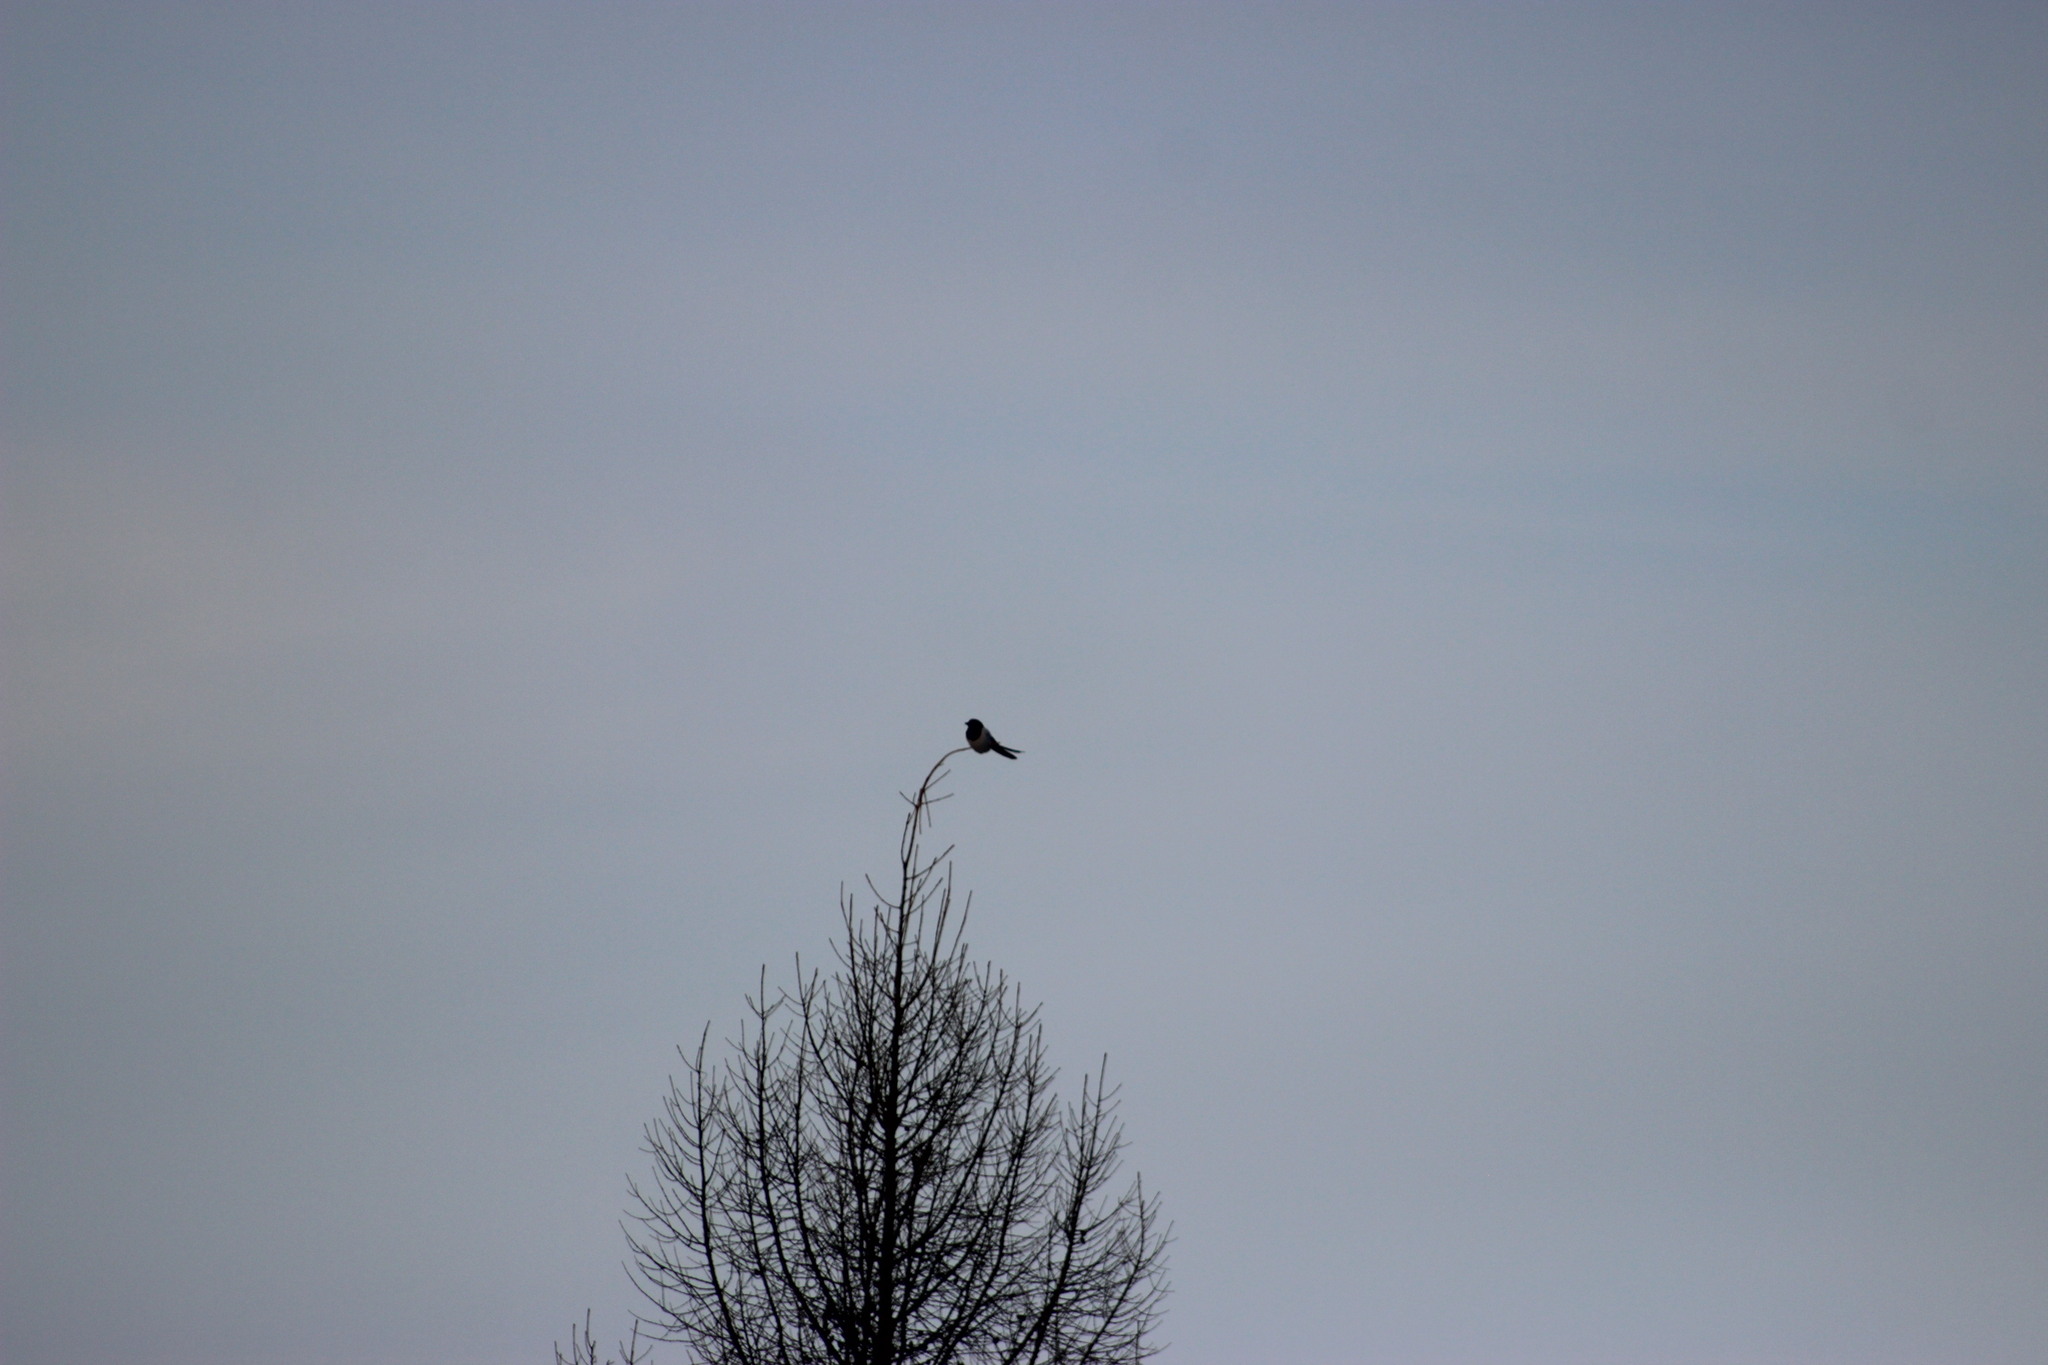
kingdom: Animalia
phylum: Chordata
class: Aves
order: Passeriformes
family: Corvidae
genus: Pica
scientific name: Pica pica
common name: Eurasian magpie
